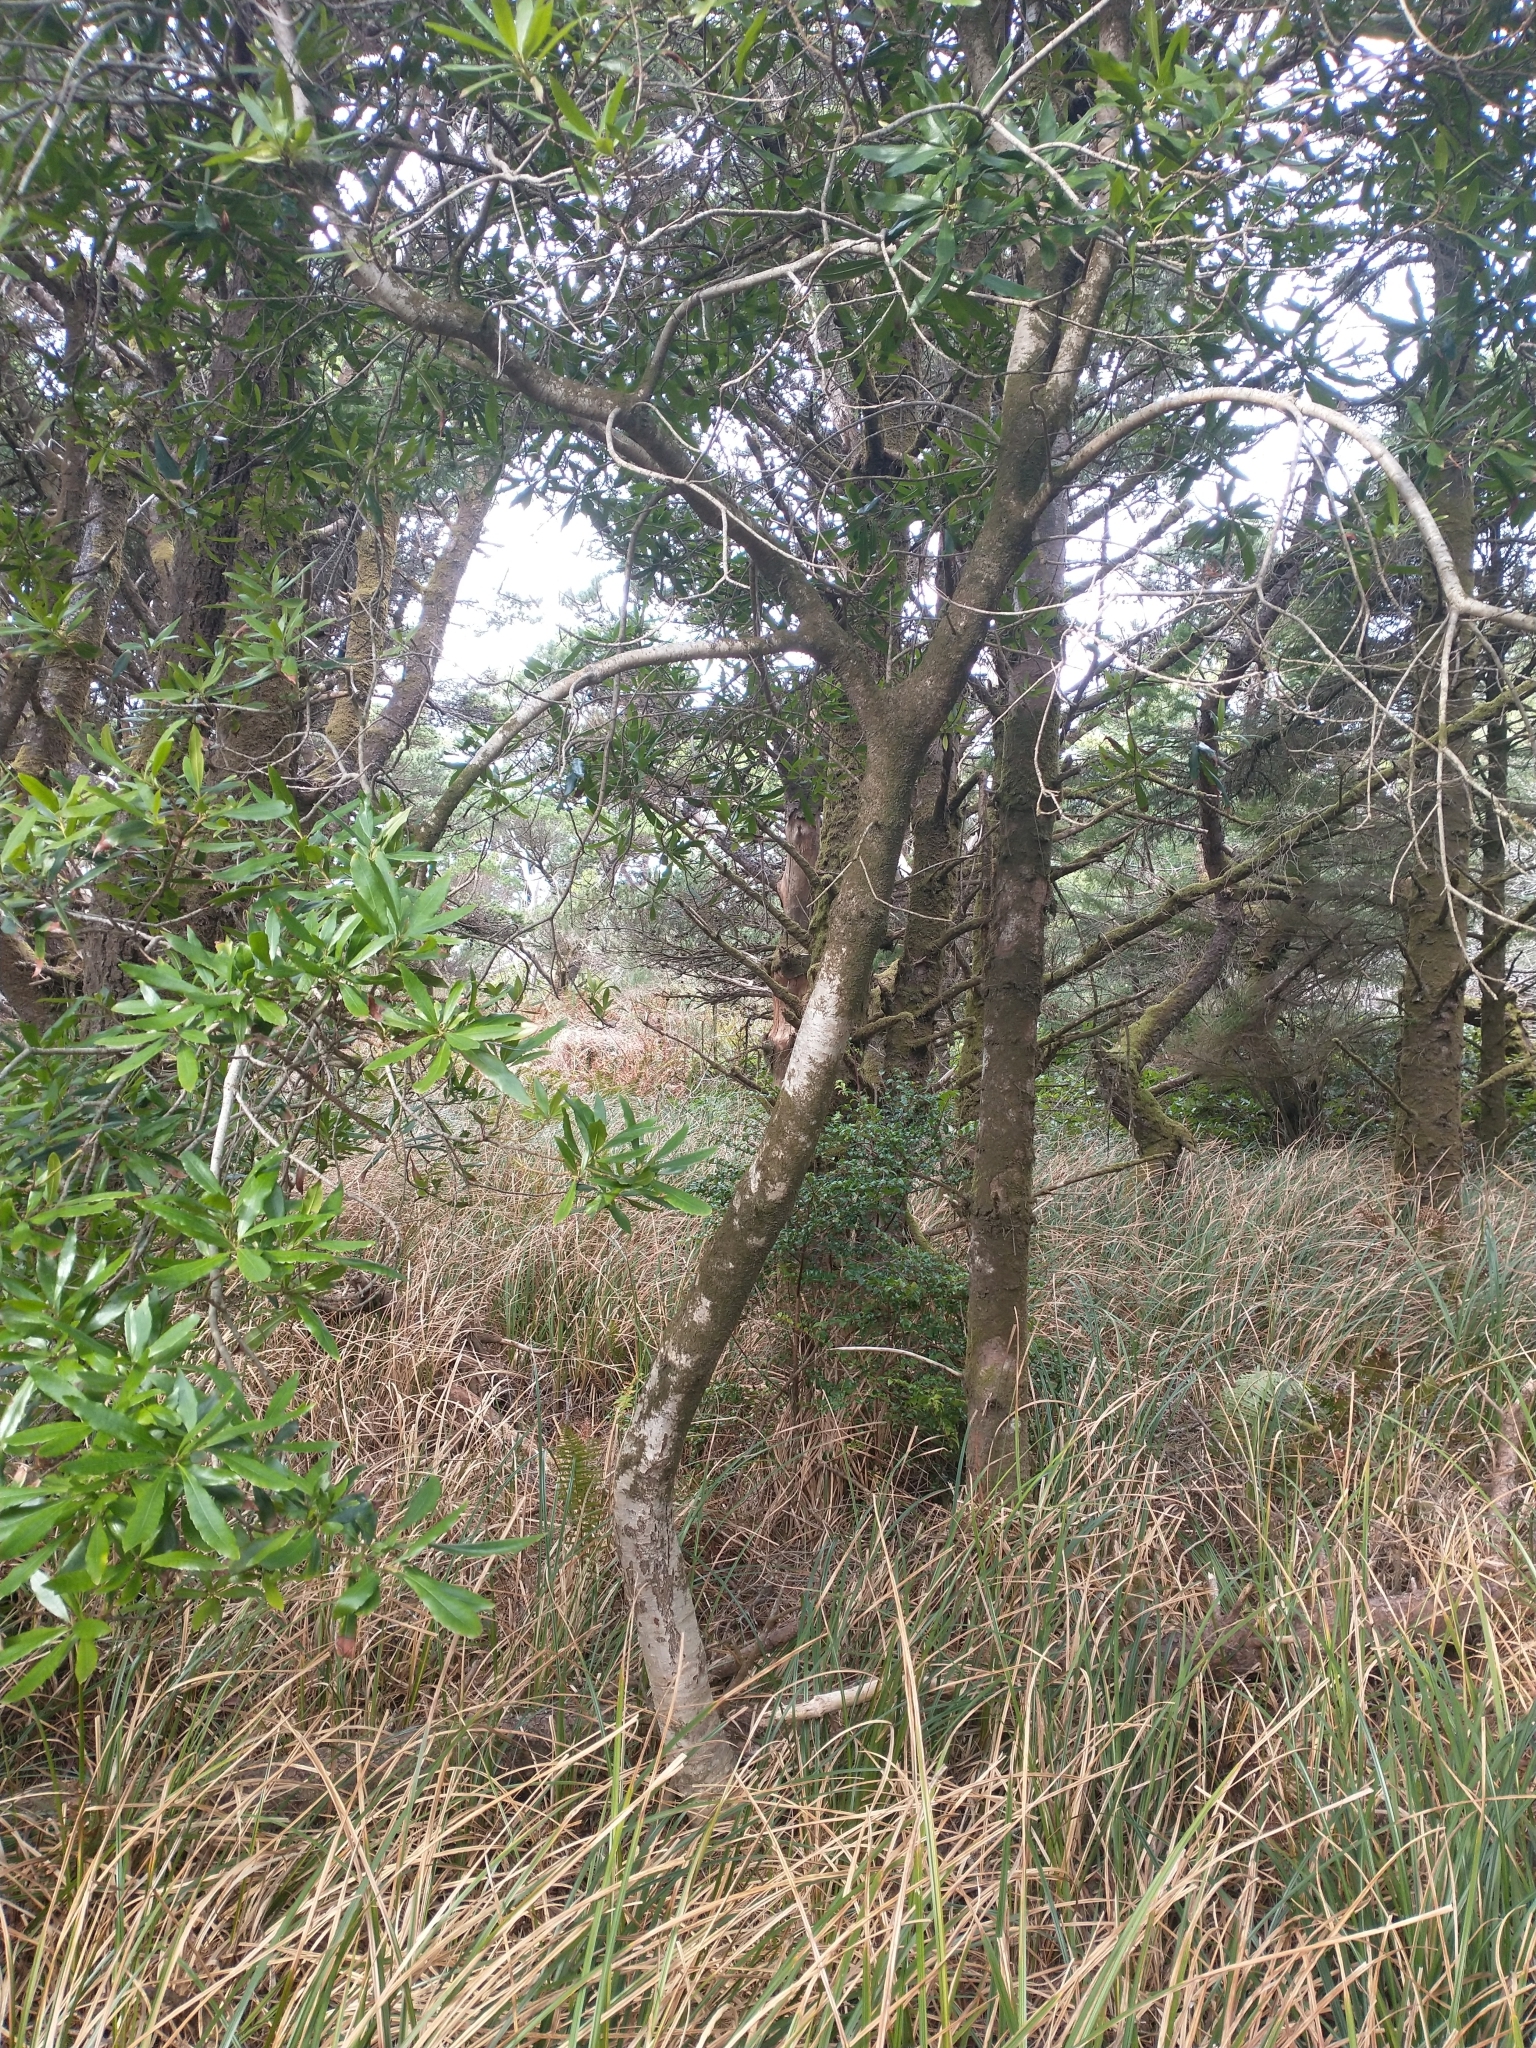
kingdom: Plantae
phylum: Tracheophyta
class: Magnoliopsida
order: Fagales
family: Myricaceae
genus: Morella
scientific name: Morella californica
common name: California wax-myrtle
